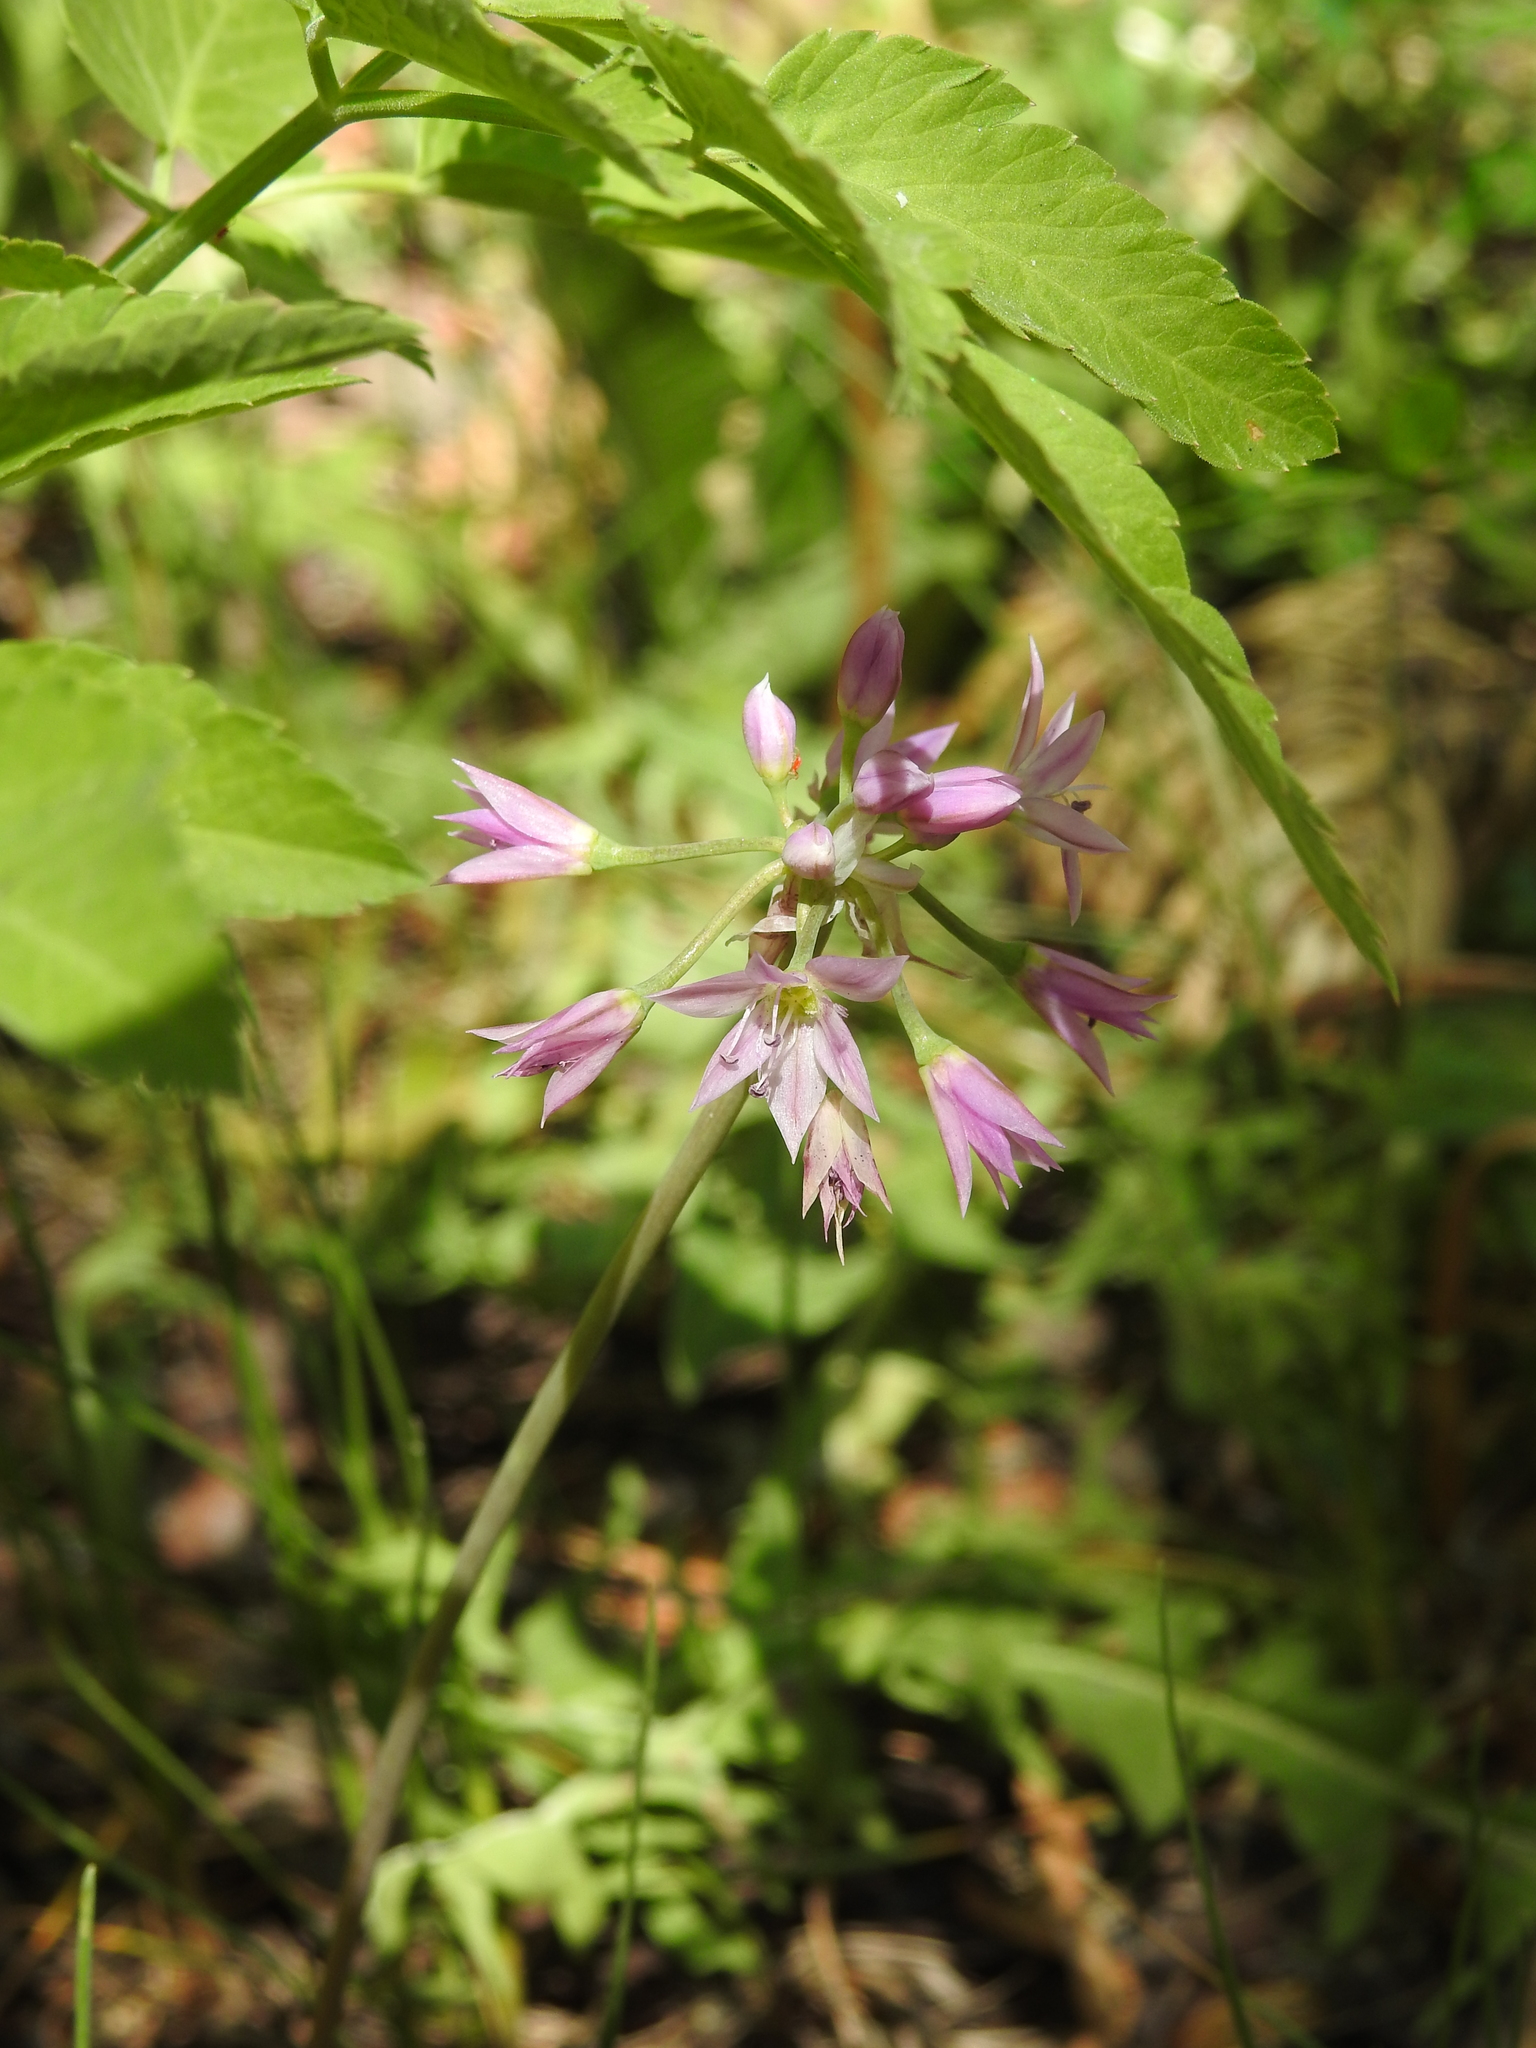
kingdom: Plantae
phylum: Tracheophyta
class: Liliopsida
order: Asparagales
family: Amaryllidaceae
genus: Allium
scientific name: Allium bisceptrum
